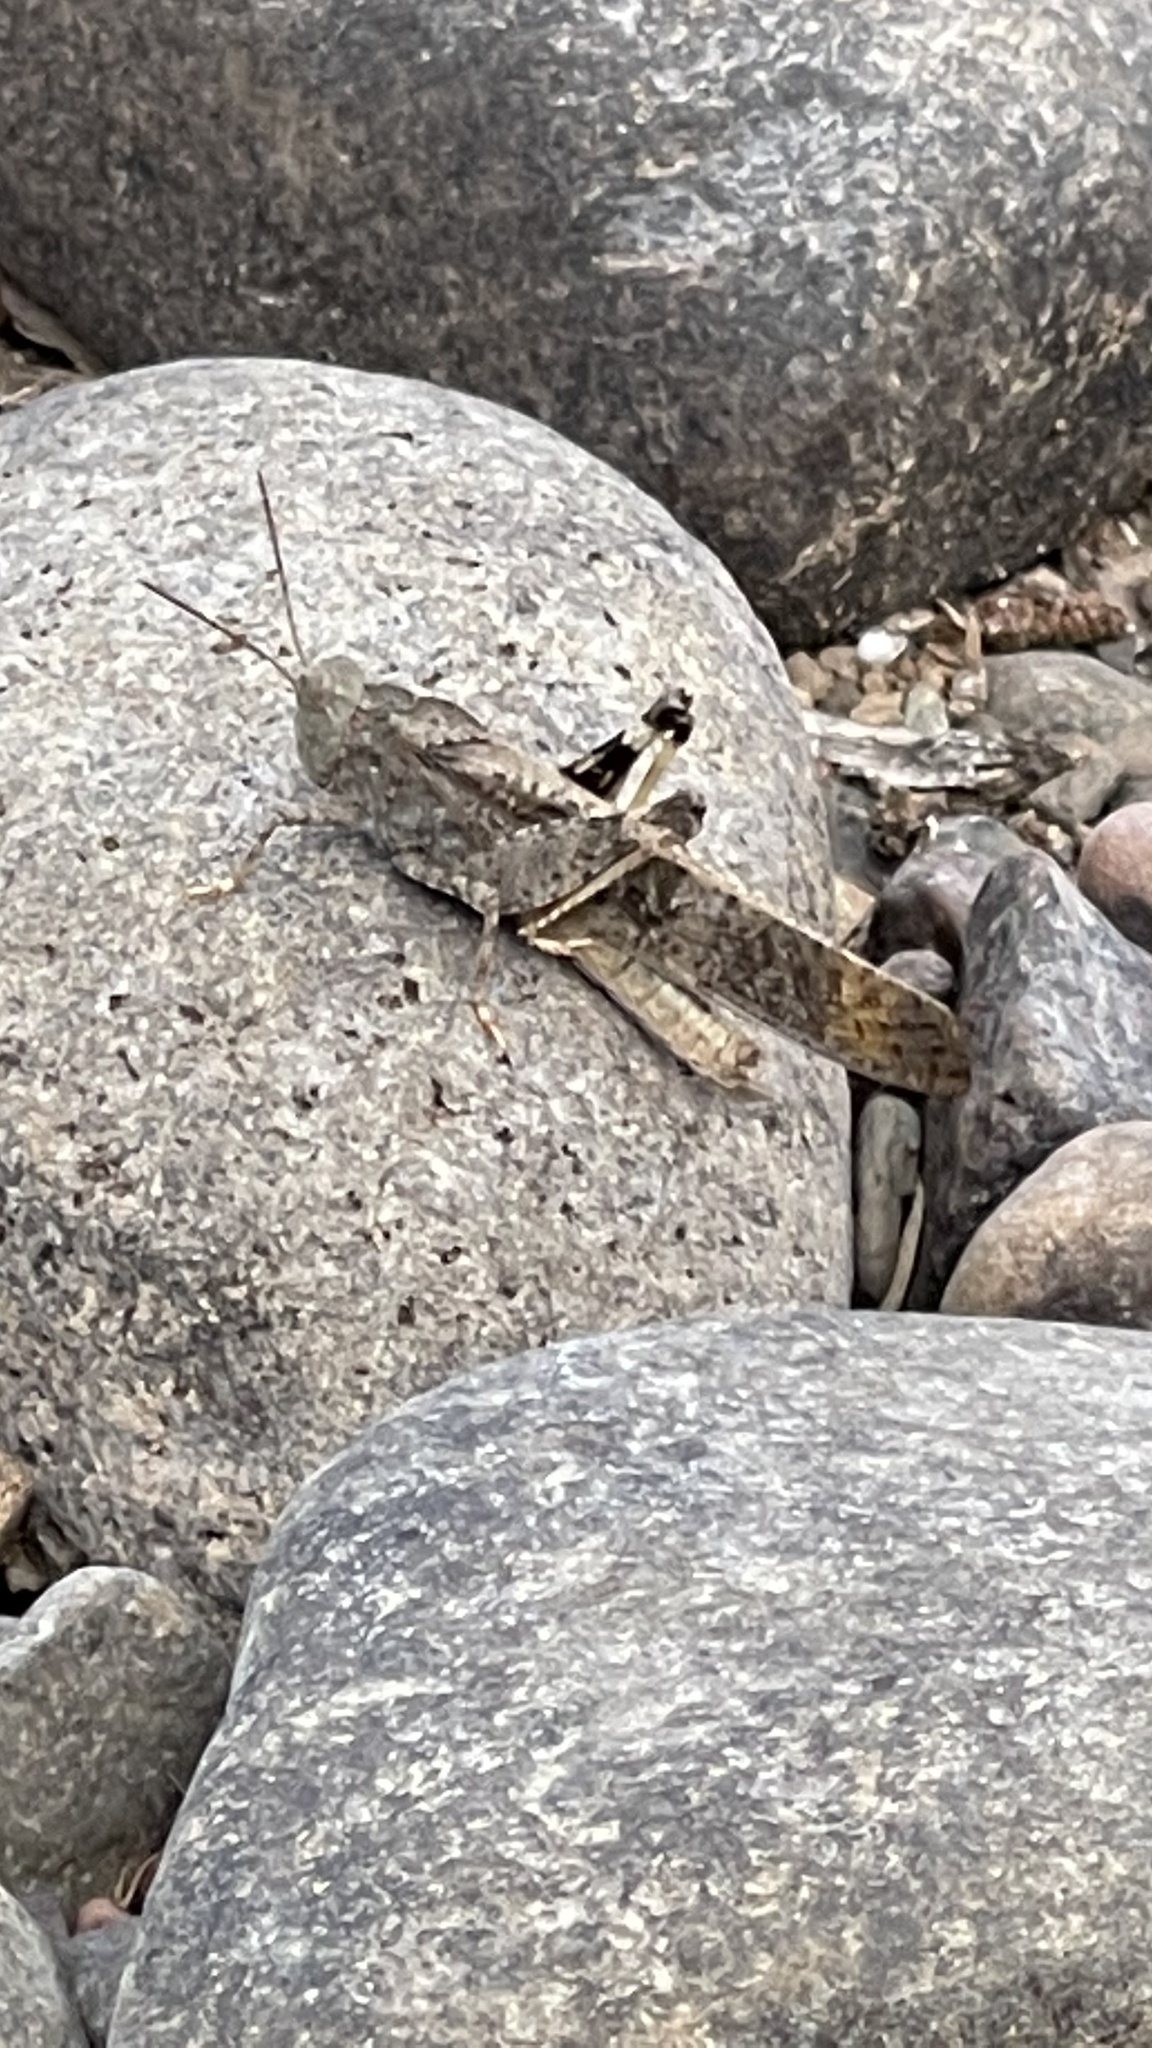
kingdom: Animalia
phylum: Arthropoda
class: Insecta
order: Orthoptera
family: Acrididae
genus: Dissosteira
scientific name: Dissosteira carolina
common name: Carolina grasshopper
